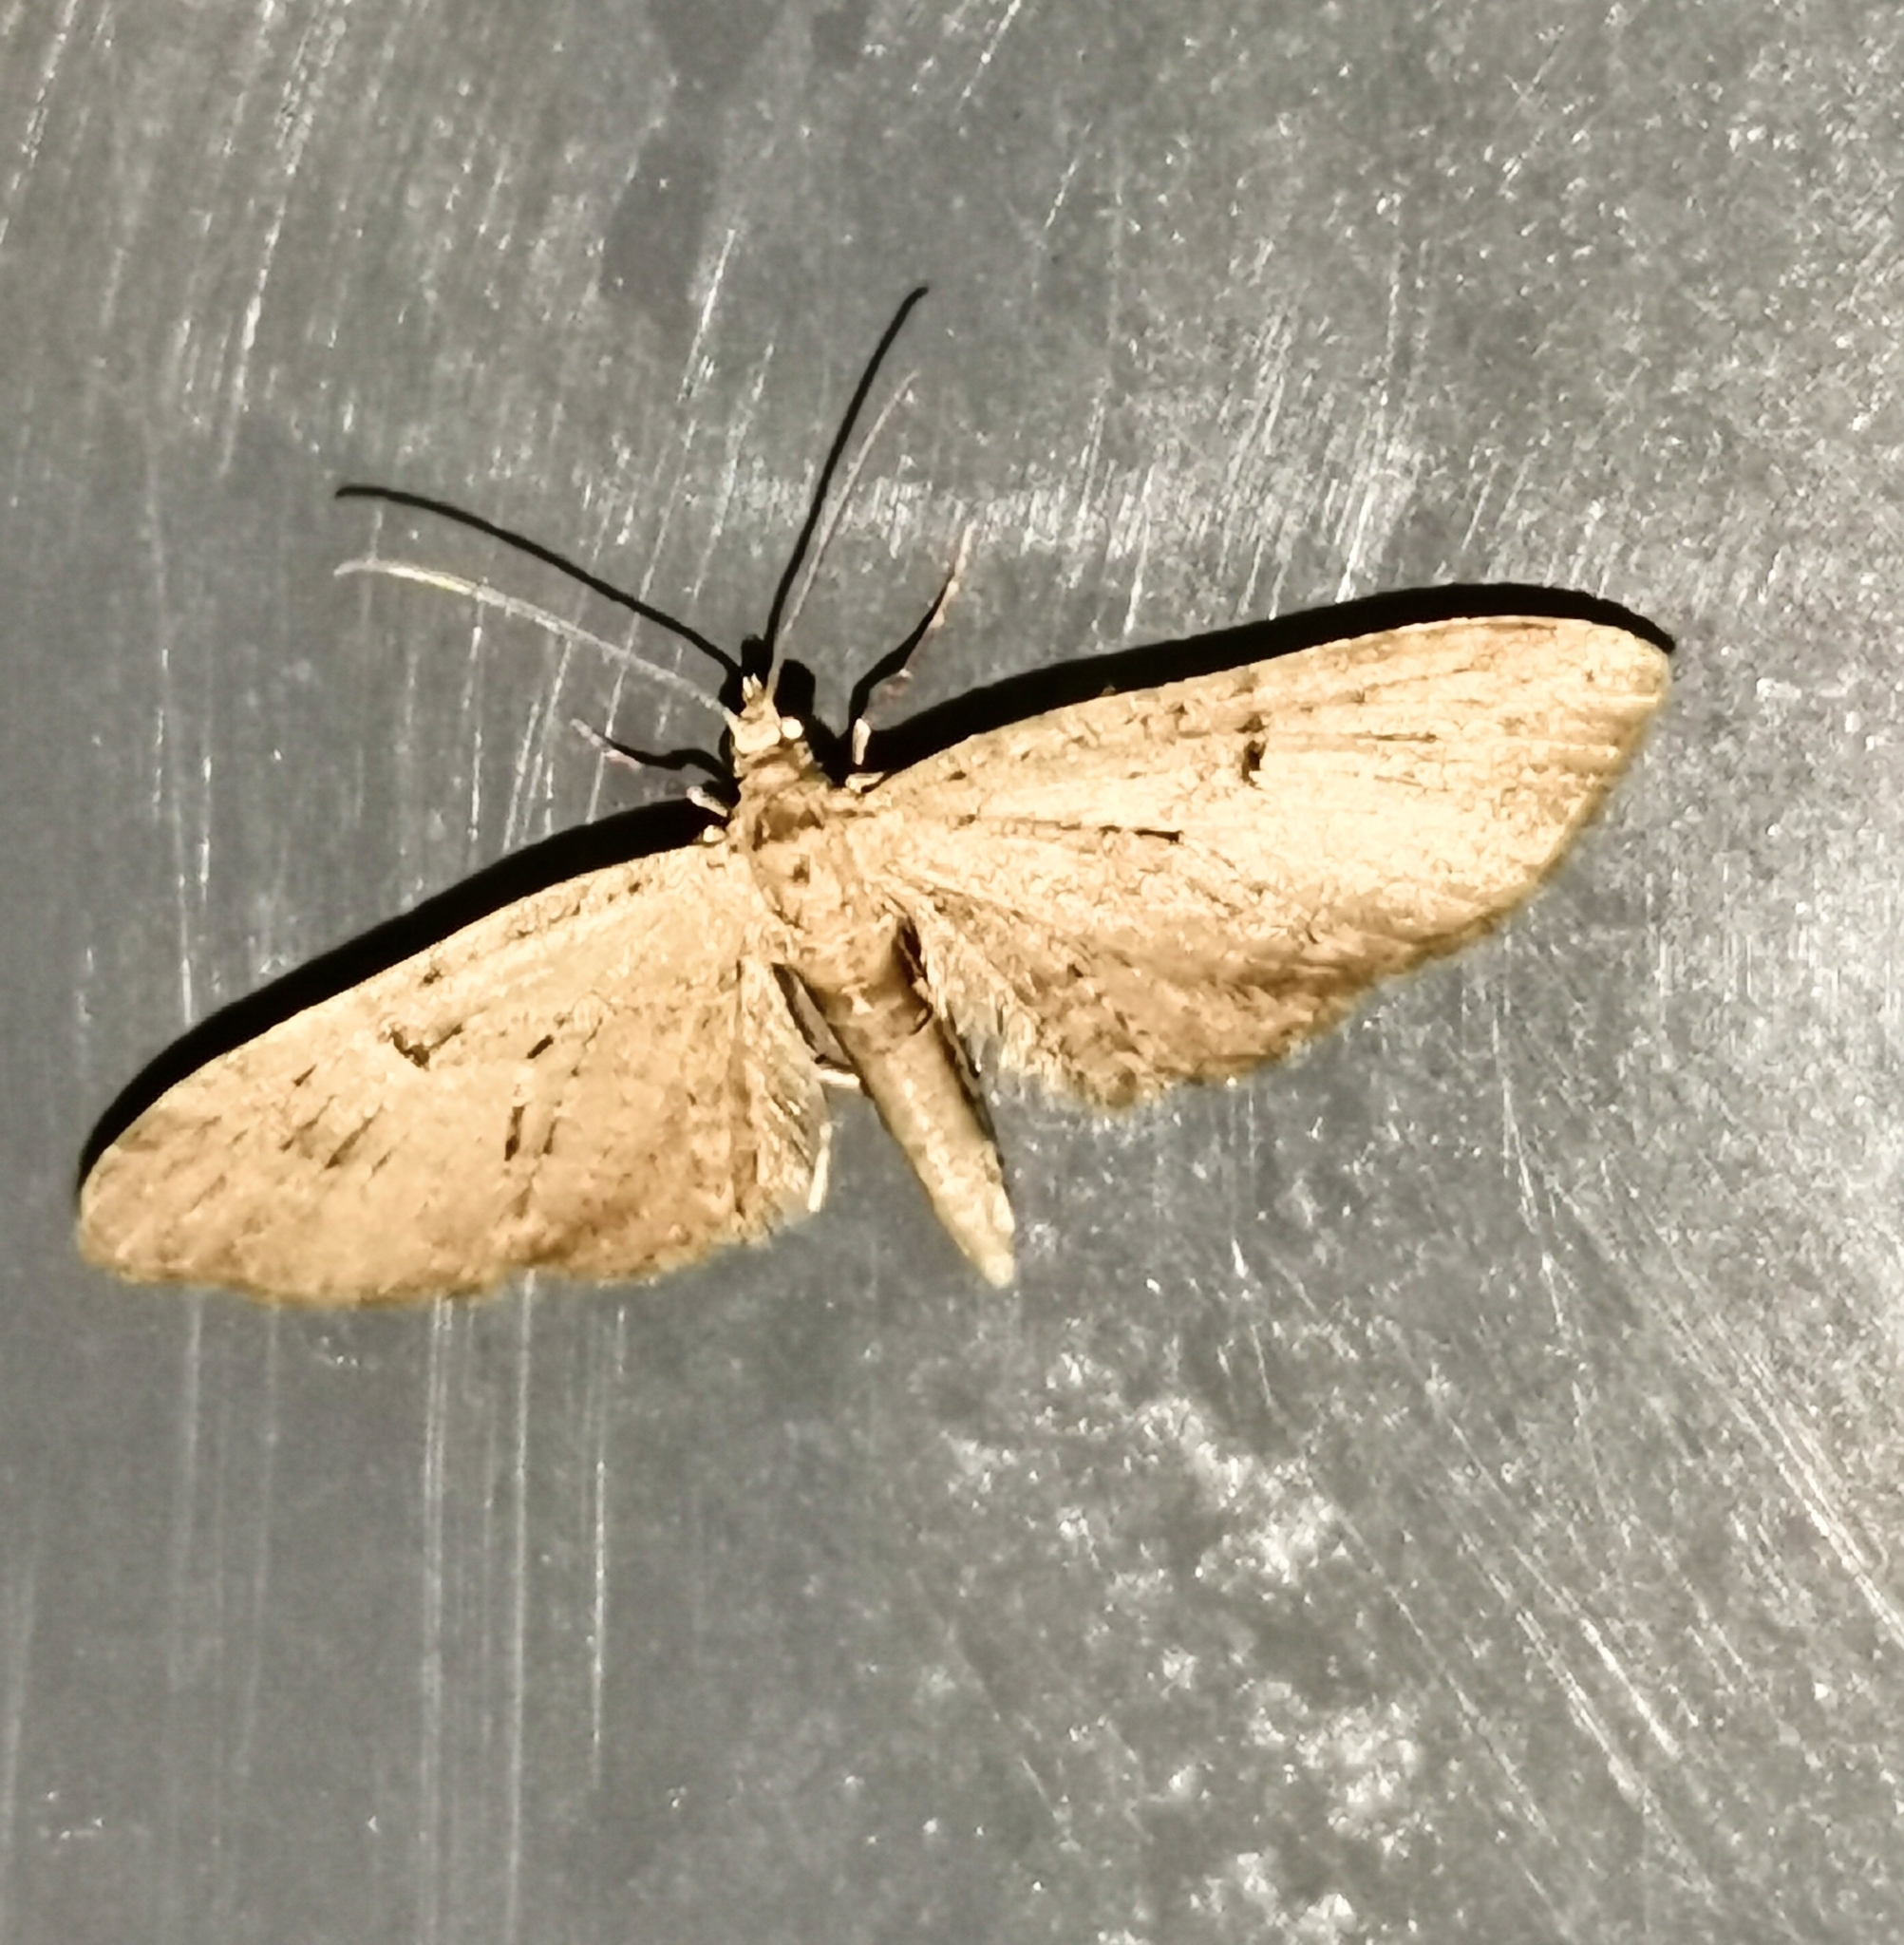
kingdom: Animalia
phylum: Arthropoda
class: Insecta
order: Lepidoptera
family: Geometridae
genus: Eupithecia
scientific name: Eupithecia pusillata
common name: Juniper pug
